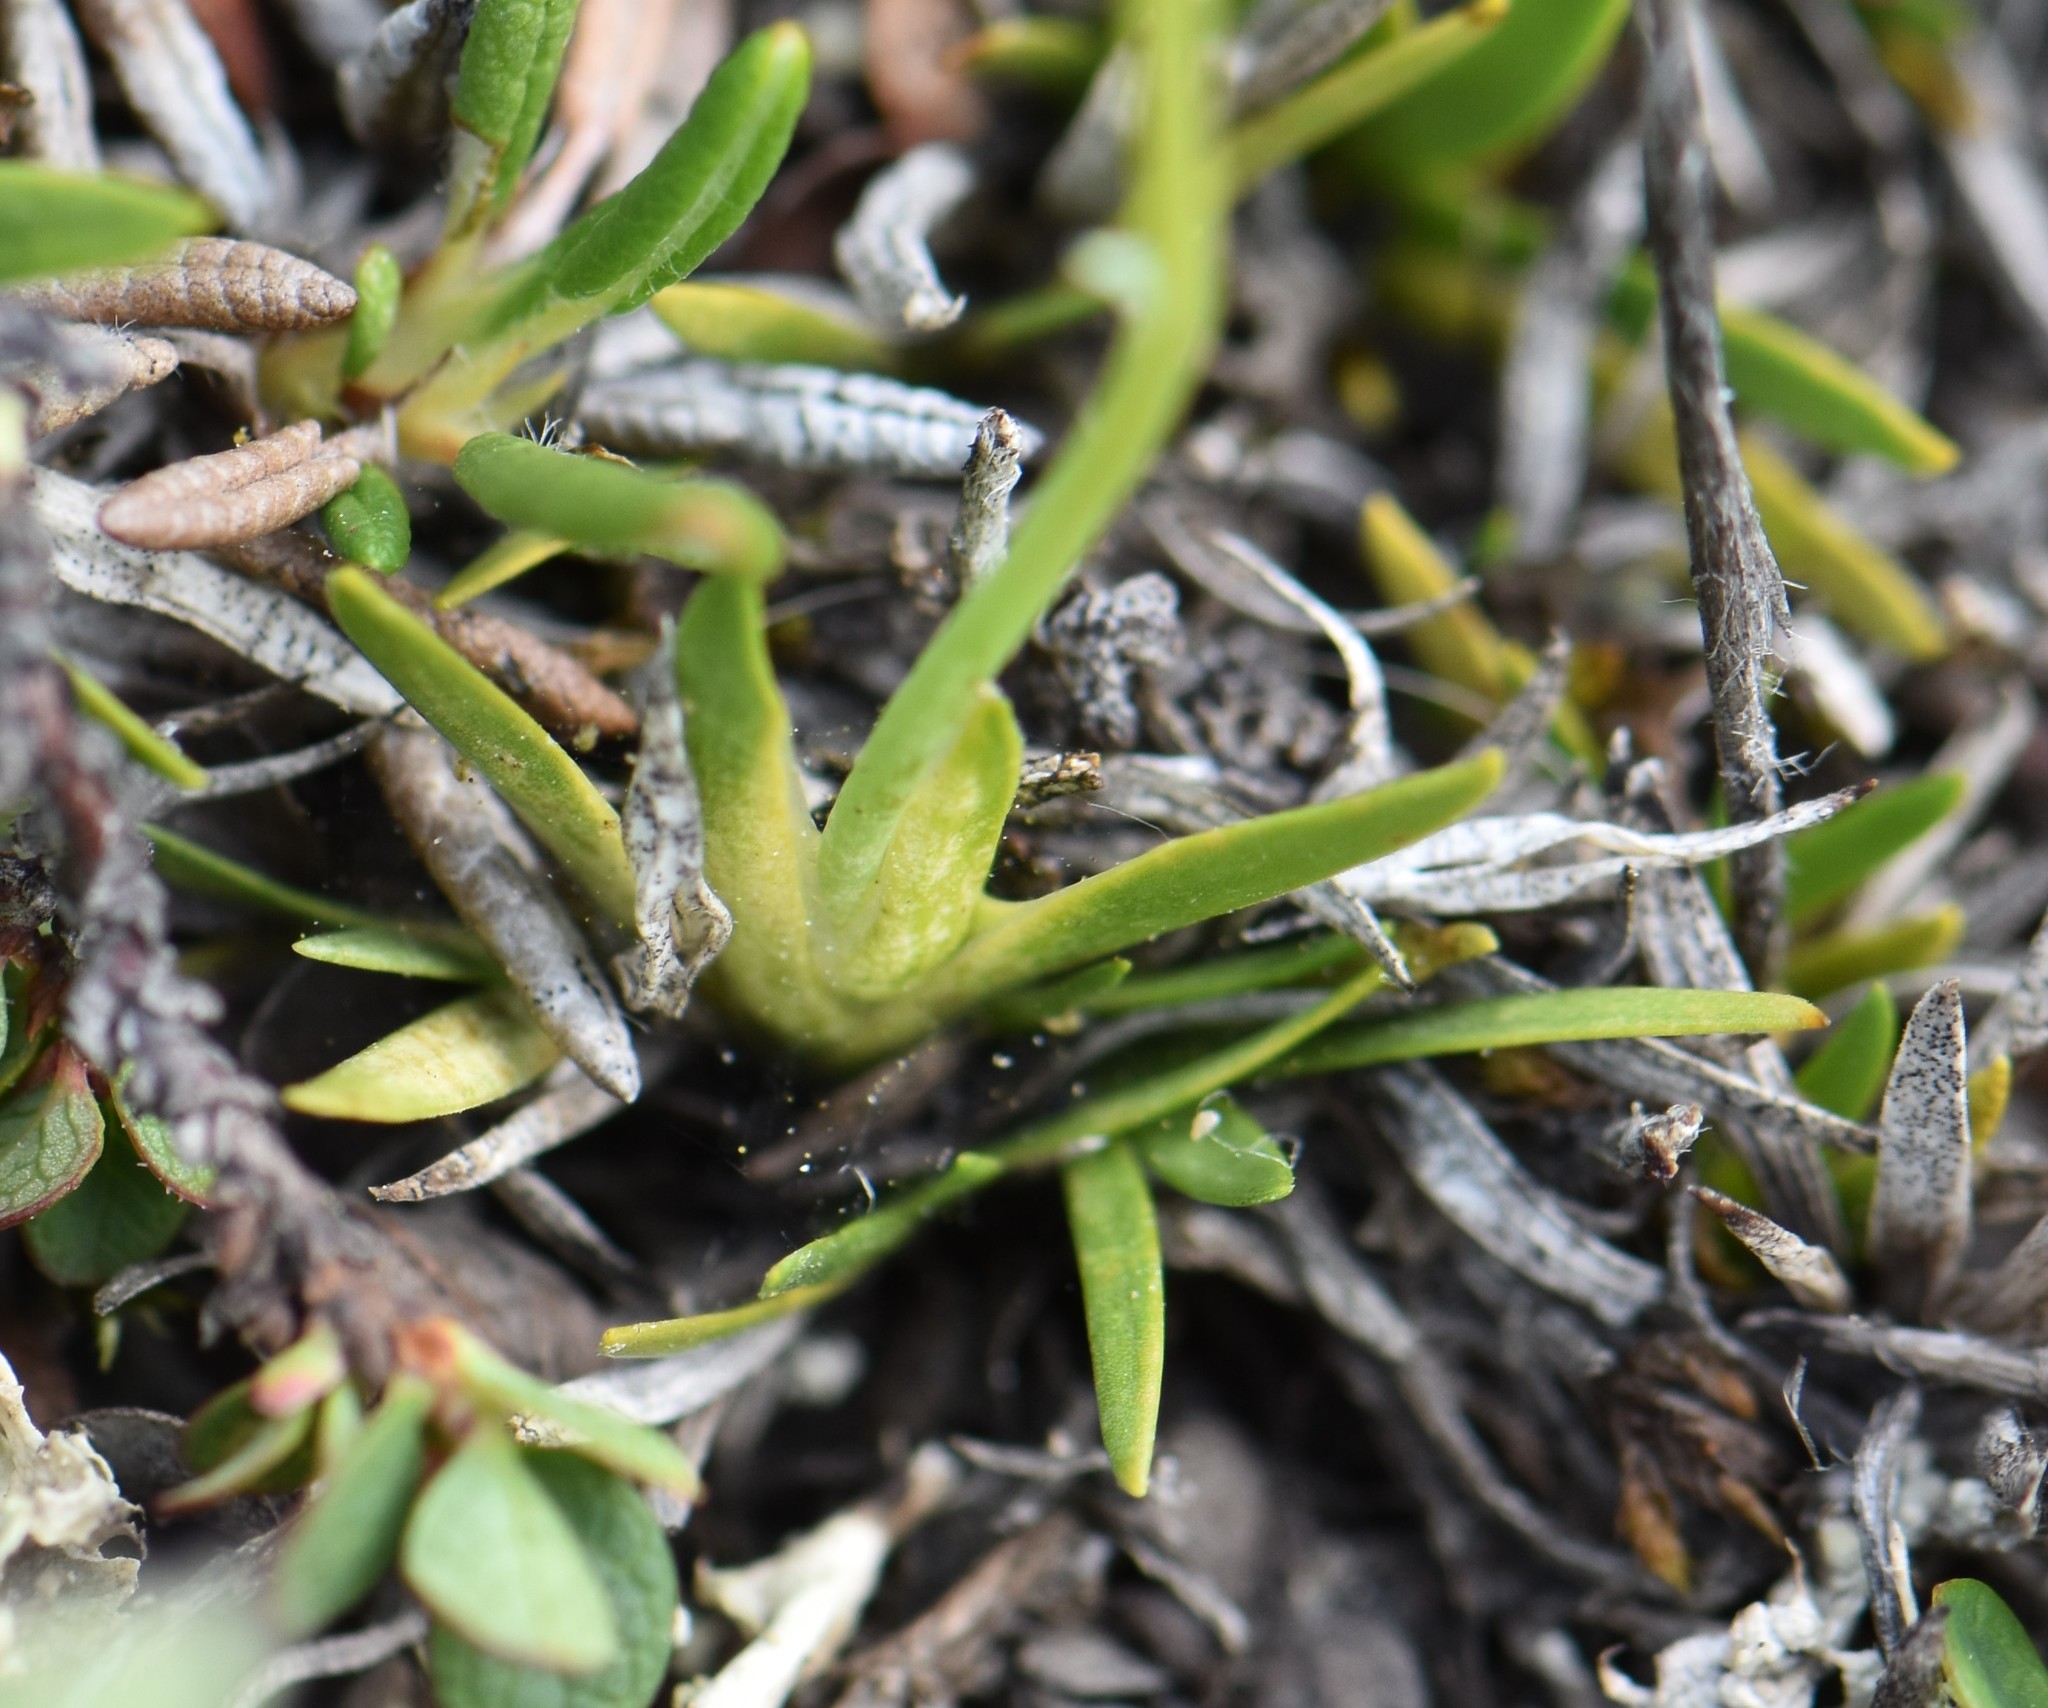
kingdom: Plantae
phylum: Tracheophyta
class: Liliopsida
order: Alismatales
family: Tofieldiaceae
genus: Tofieldia
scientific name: Tofieldia pusilla
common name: Scottish false asphodel
